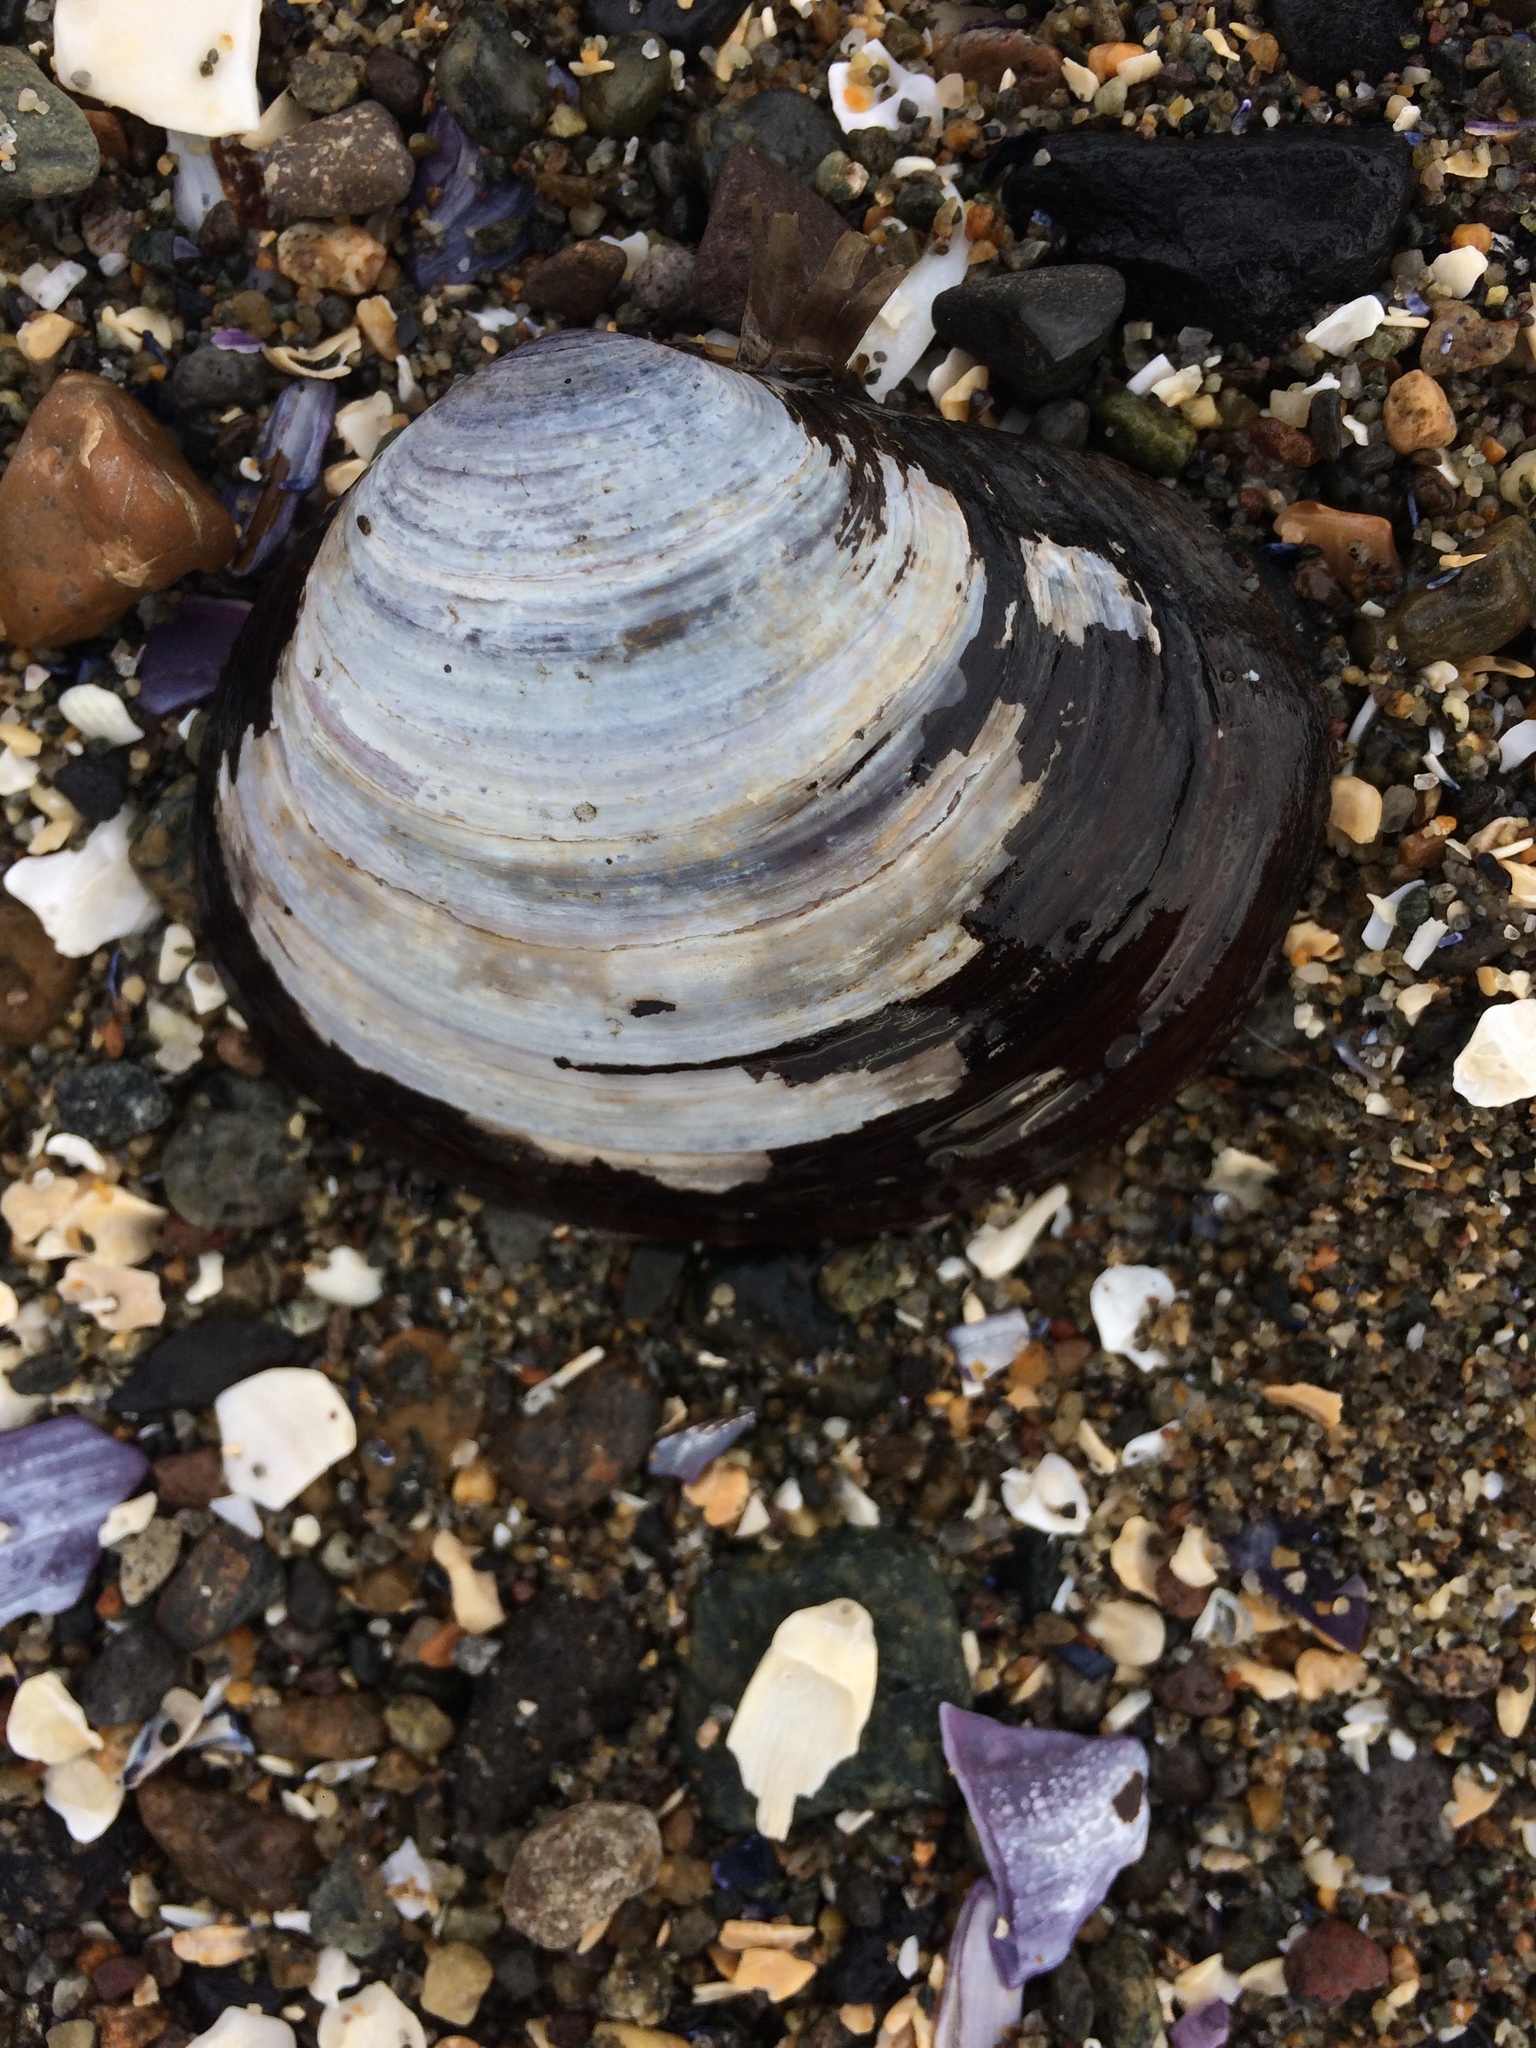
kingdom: Animalia
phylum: Mollusca
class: Bivalvia
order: Cardiida
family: Psammobiidae
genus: Nuttallia
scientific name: Nuttallia obscurata
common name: Purple mahogany-clam
